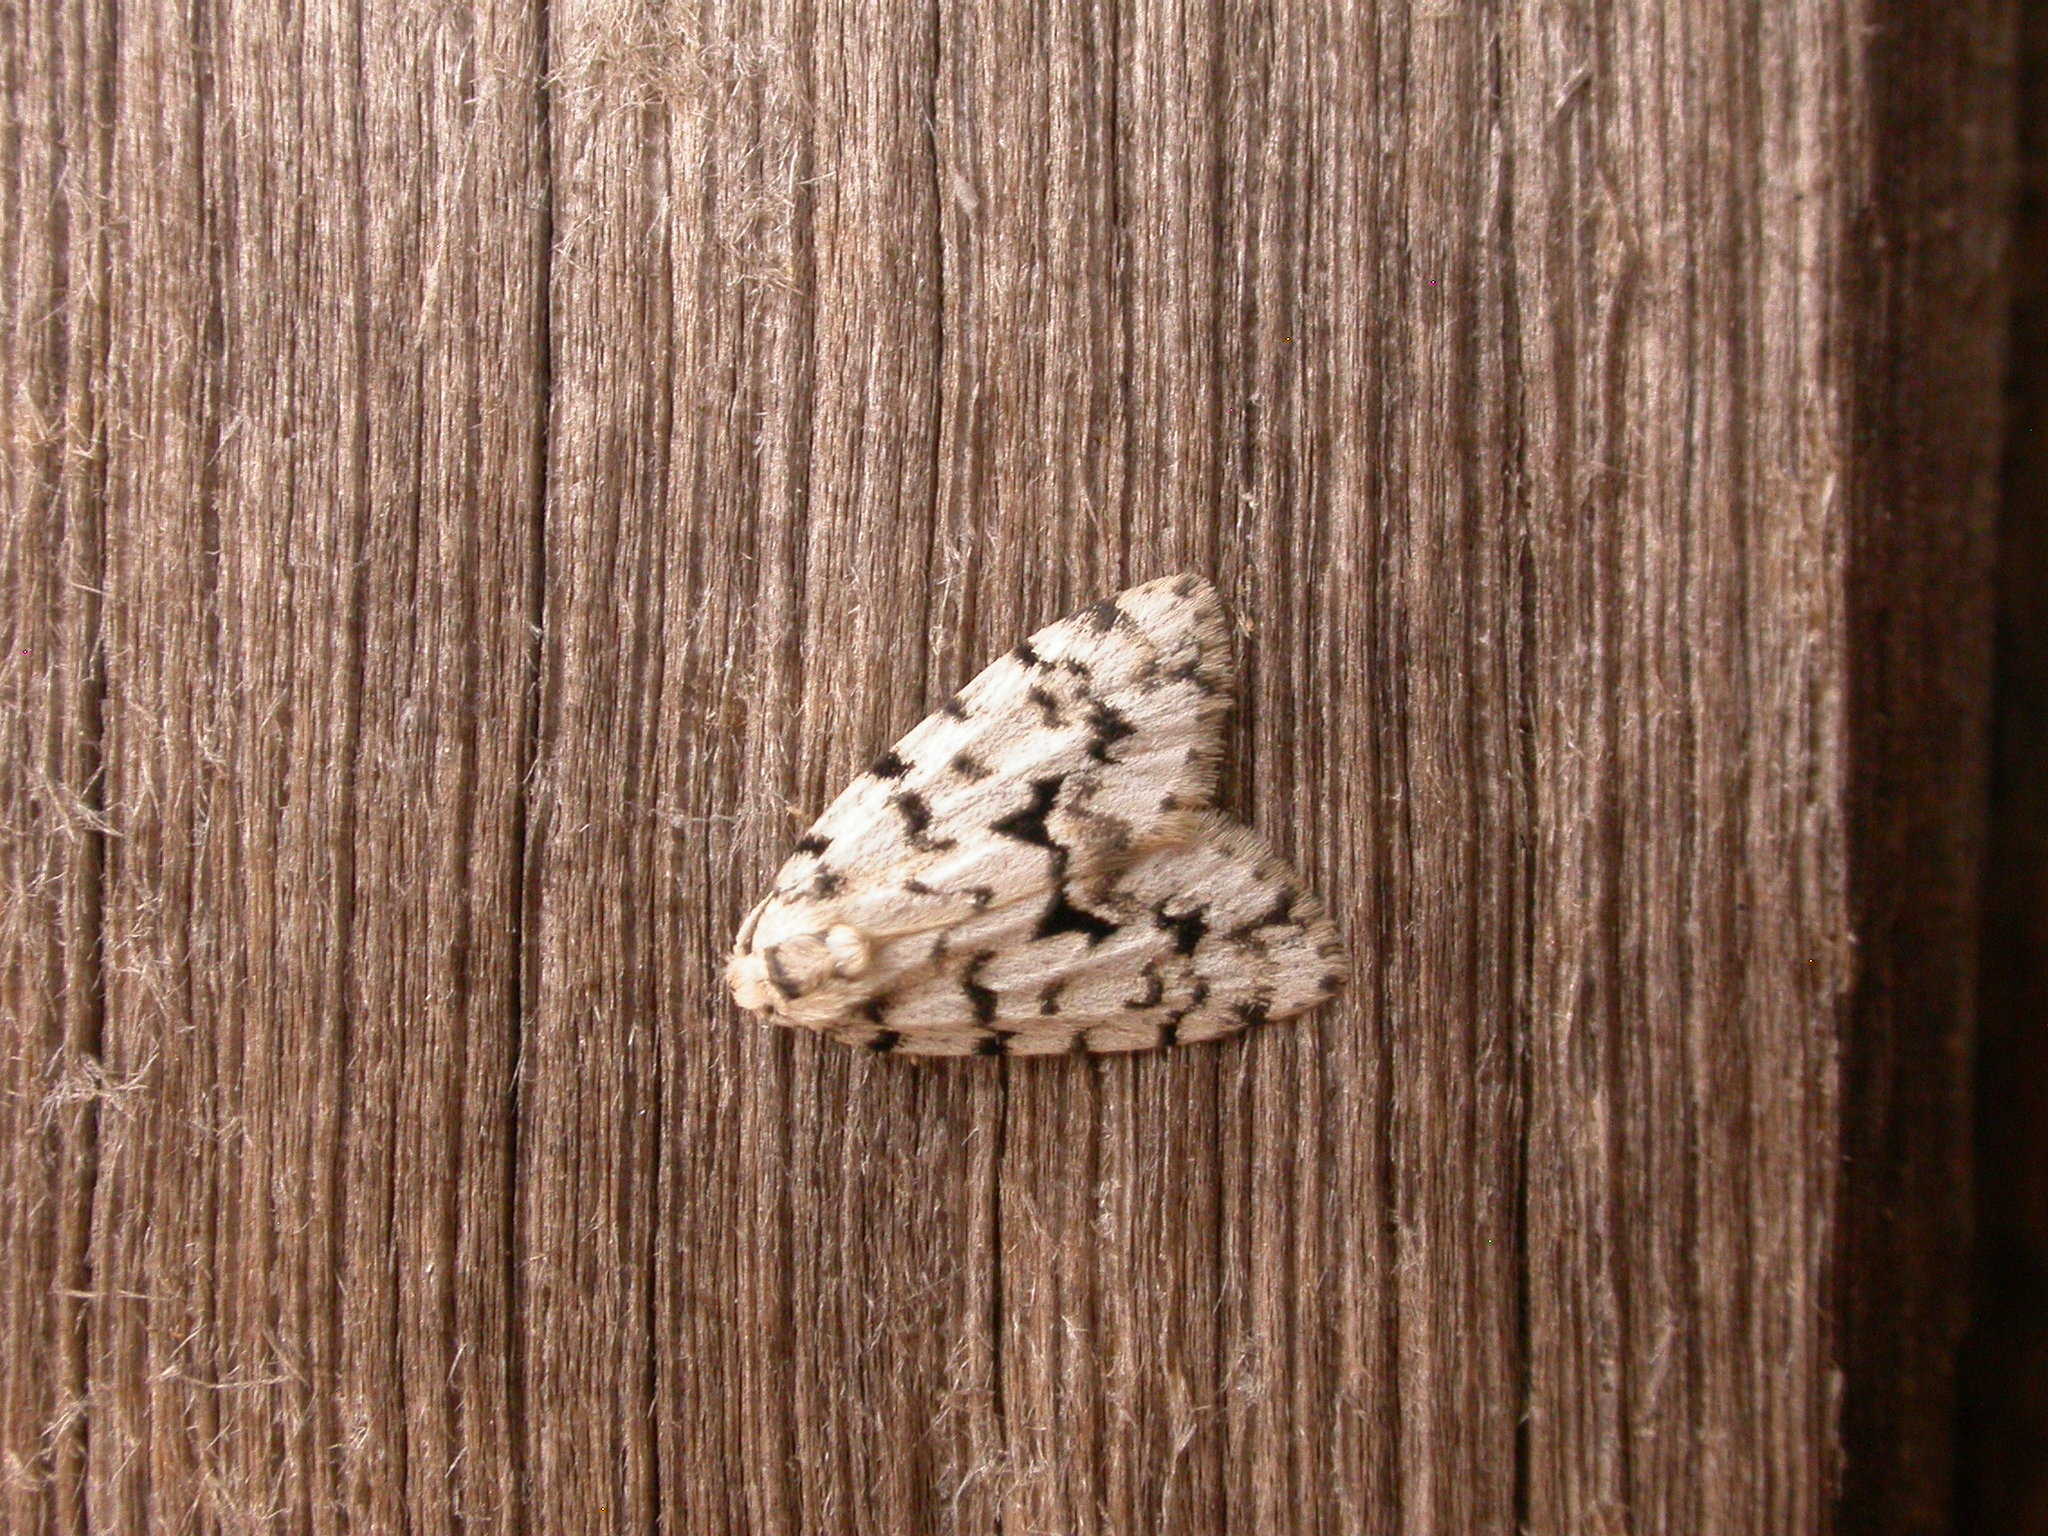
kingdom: Animalia
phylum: Arthropoda
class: Insecta
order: Lepidoptera
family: Erebidae
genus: Thallarcha
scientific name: Thallarcha macilenta
